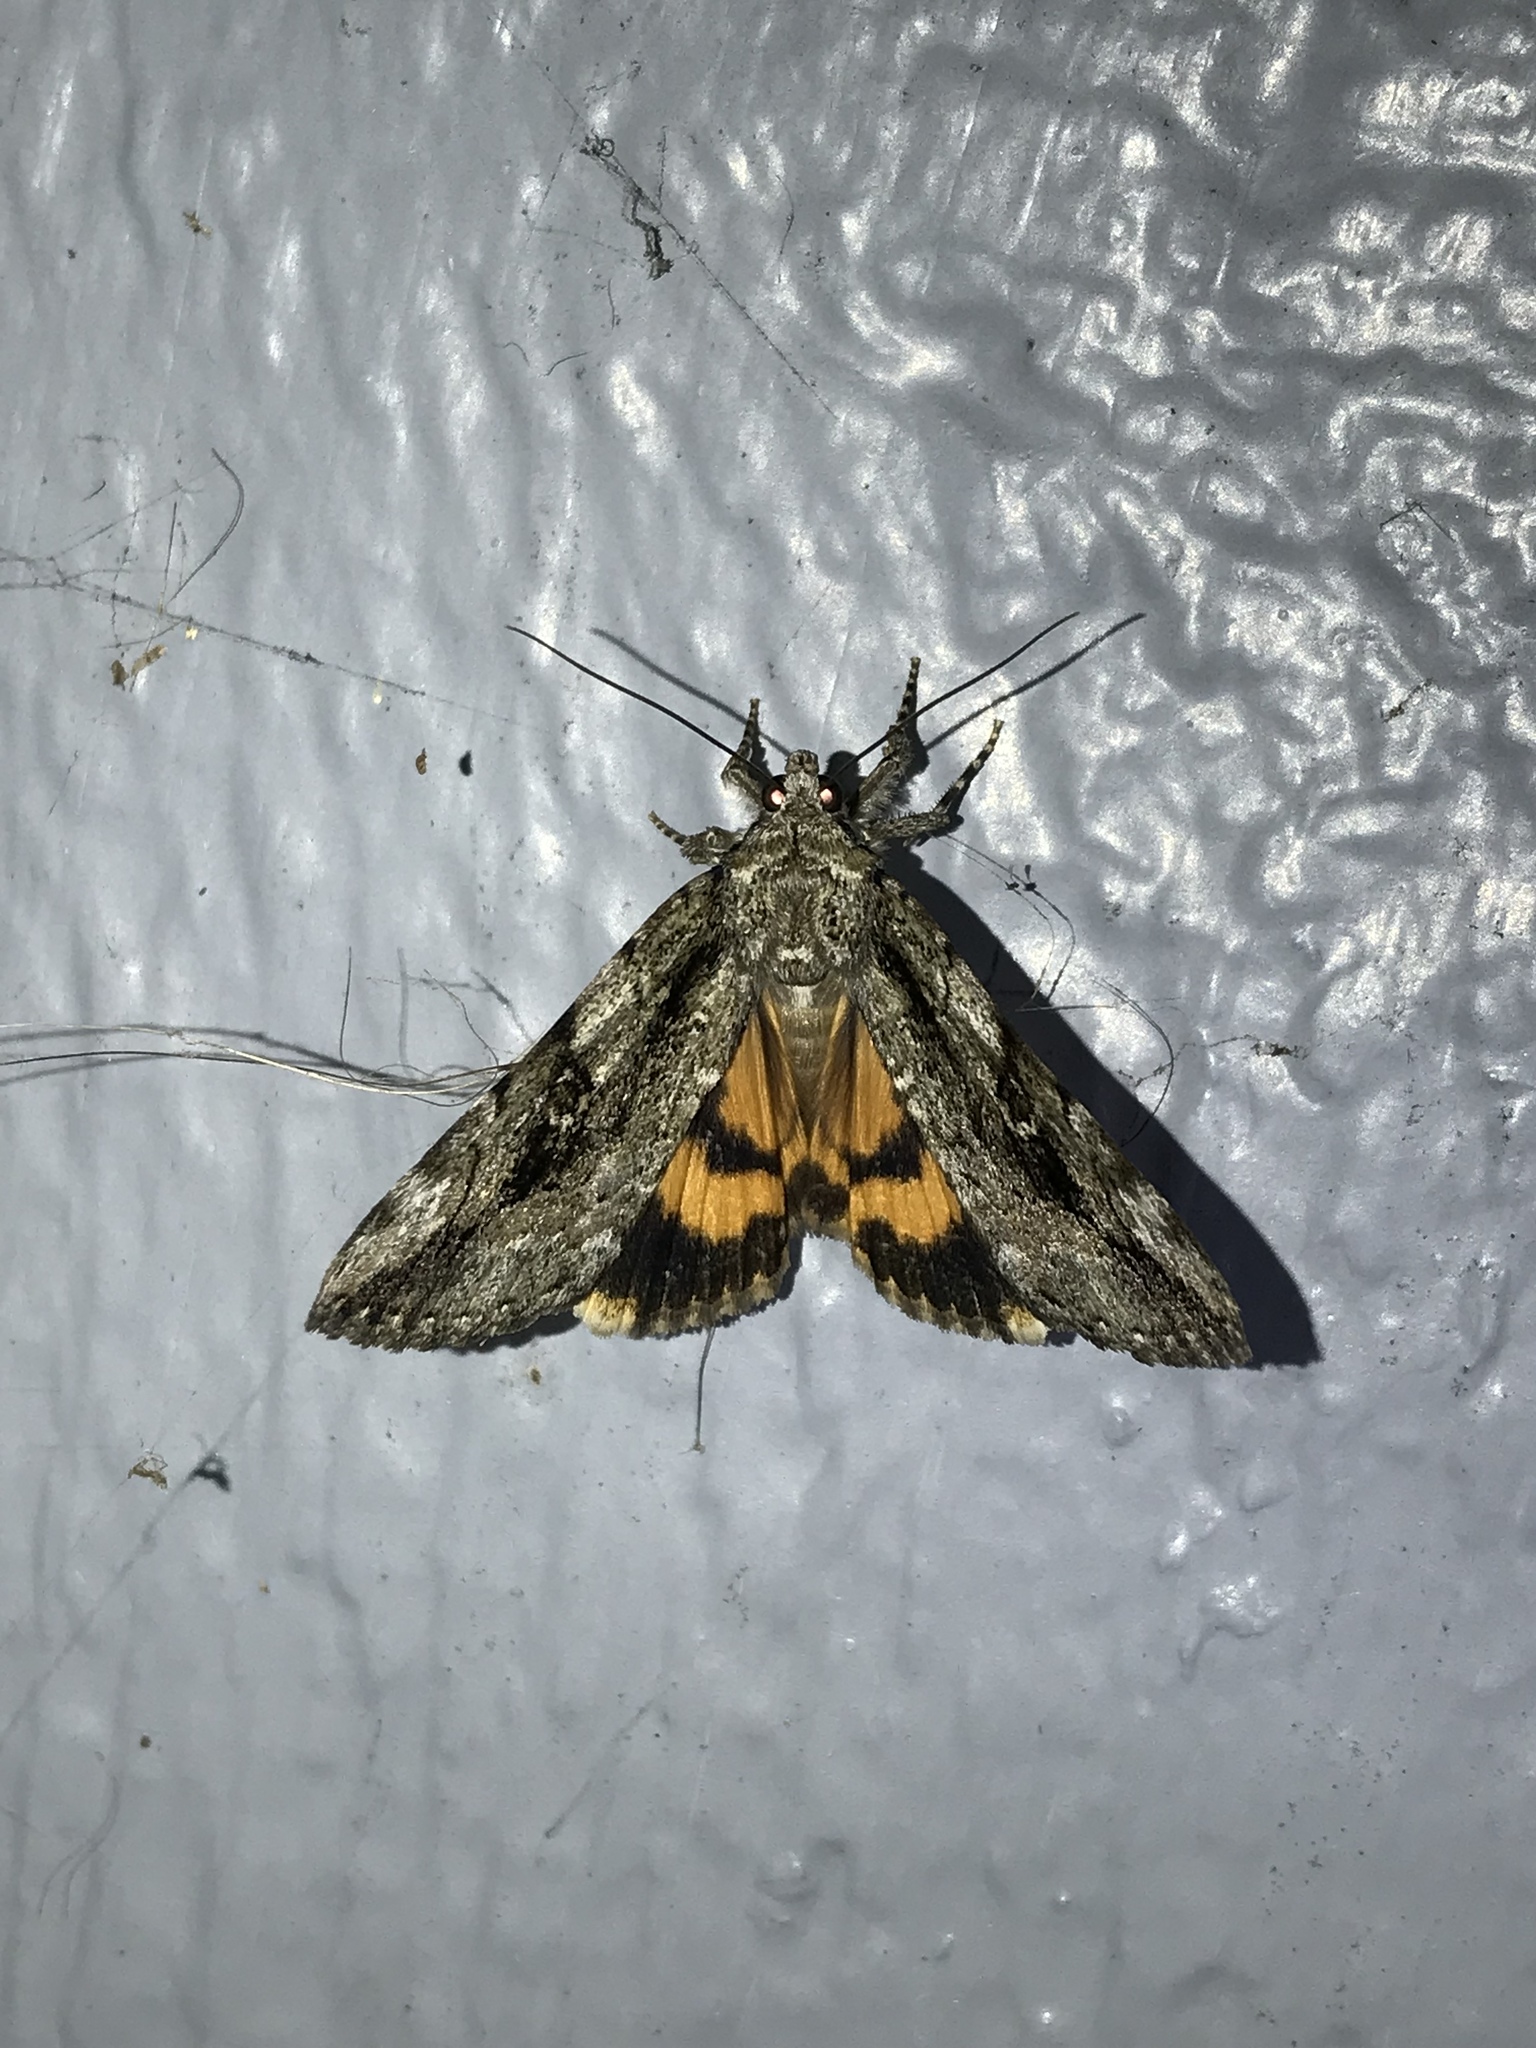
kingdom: Animalia
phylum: Arthropoda
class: Insecta
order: Lepidoptera
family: Erebidae
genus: Catocala
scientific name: Catocala micronympha
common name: Little nymph underwing
